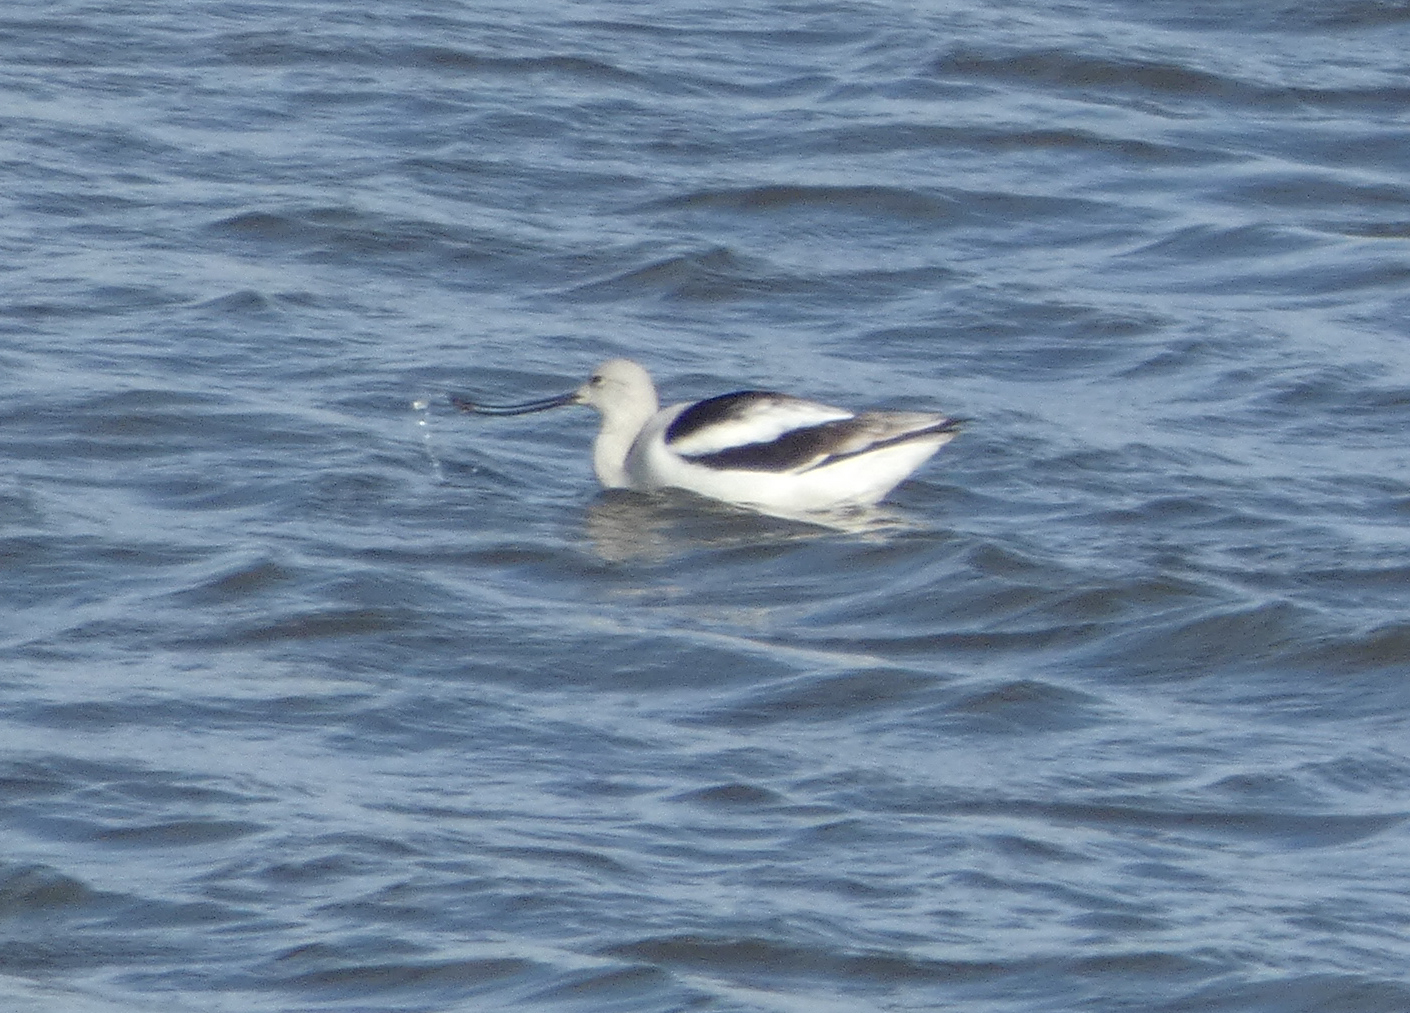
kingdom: Animalia
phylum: Chordata
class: Aves
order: Charadriiformes
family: Recurvirostridae
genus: Recurvirostra
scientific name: Recurvirostra americana
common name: American avocet
